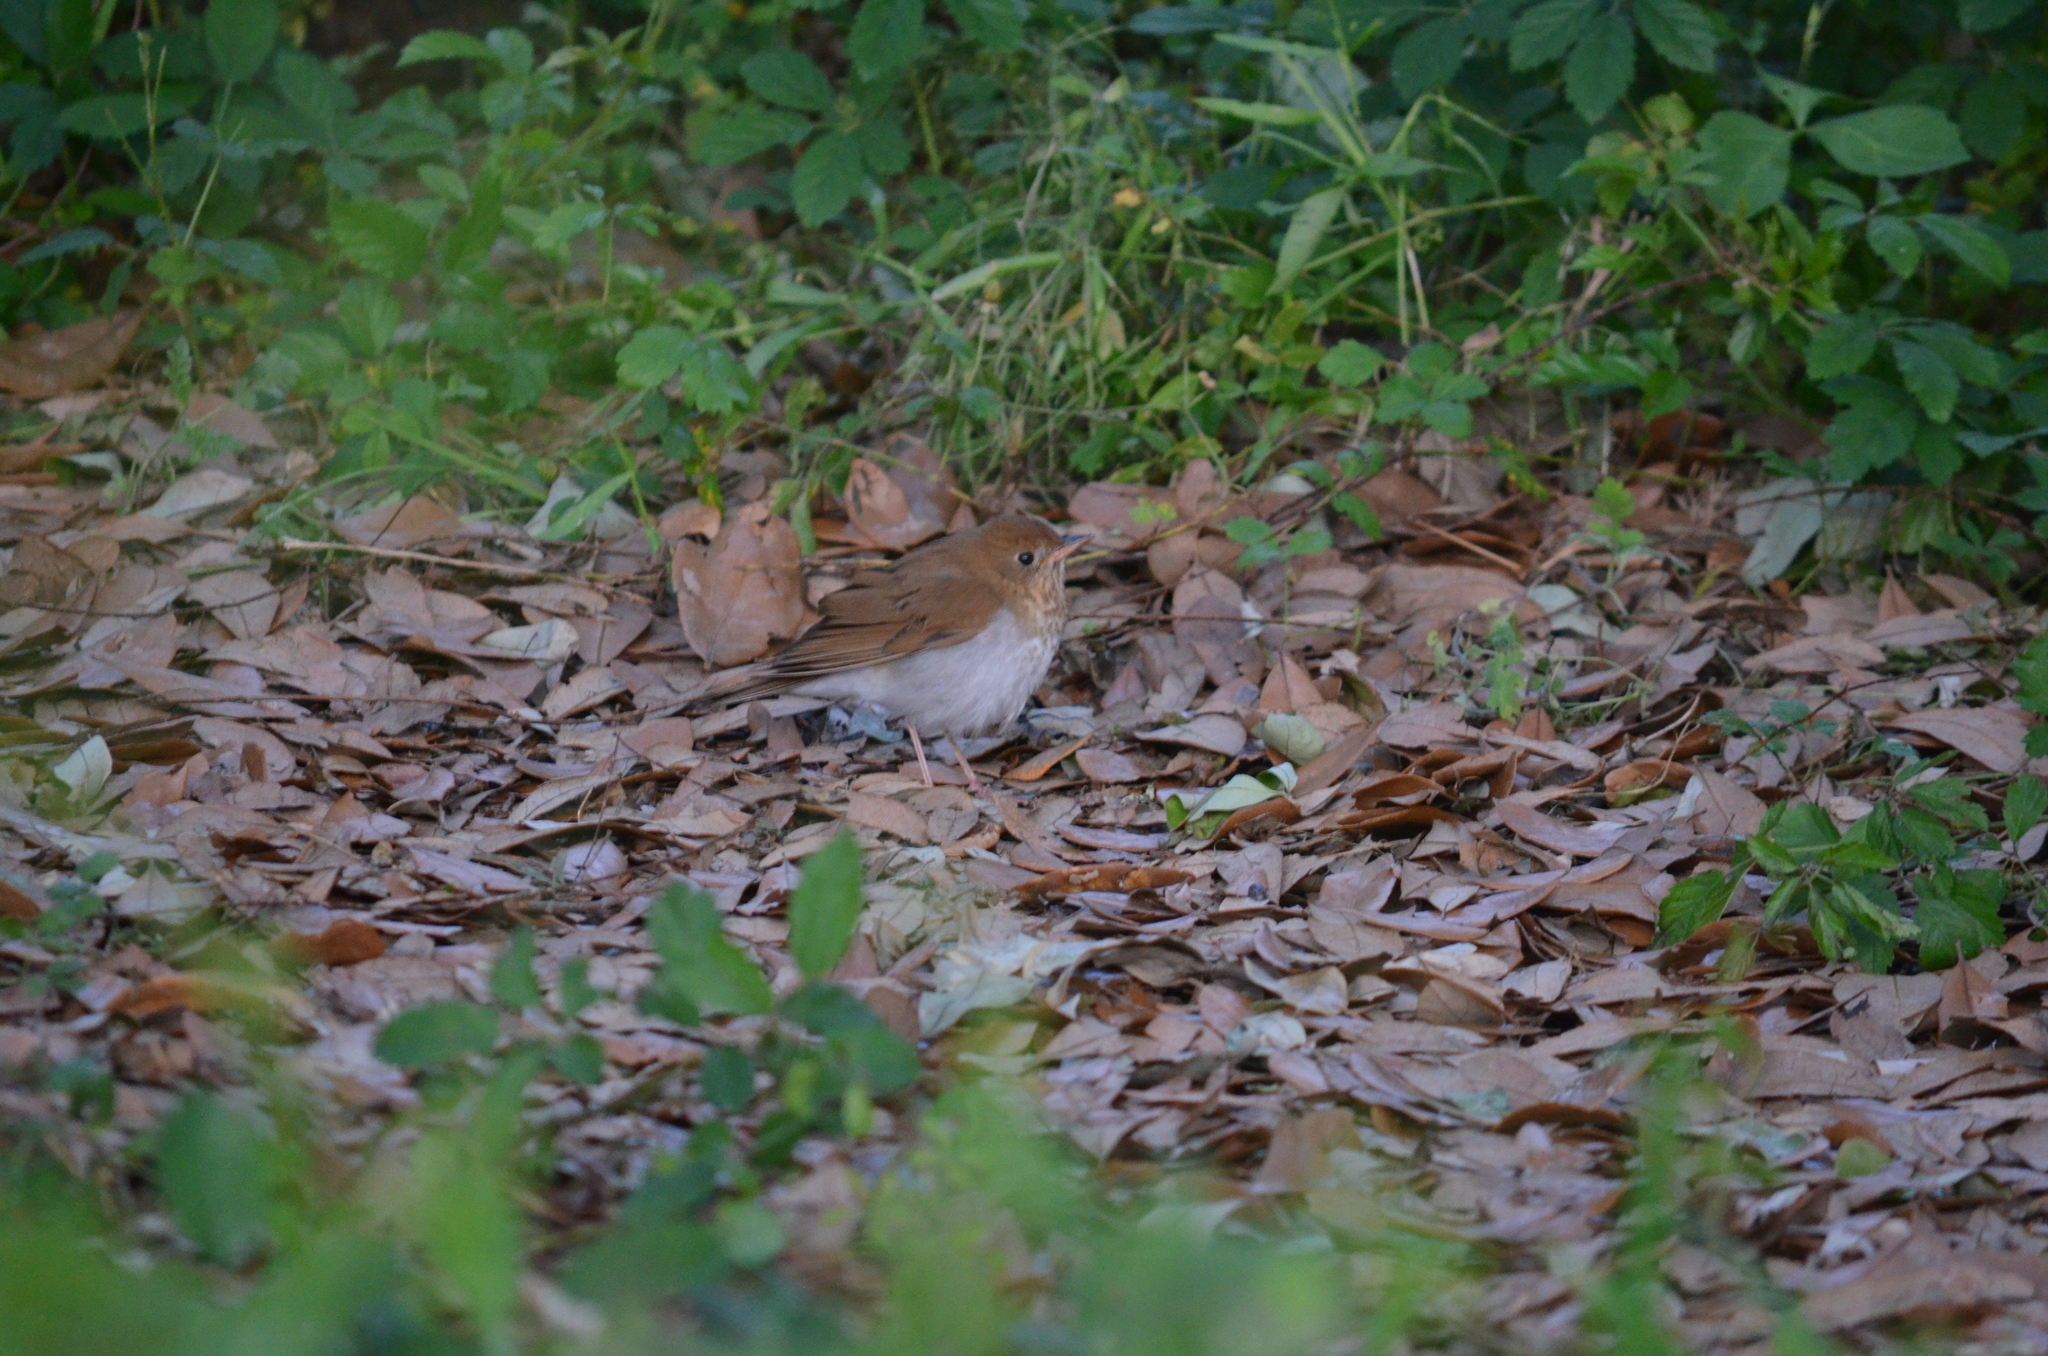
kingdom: Animalia
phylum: Chordata
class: Aves
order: Passeriformes
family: Turdidae
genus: Catharus
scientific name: Catharus fuscescens
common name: Veery
